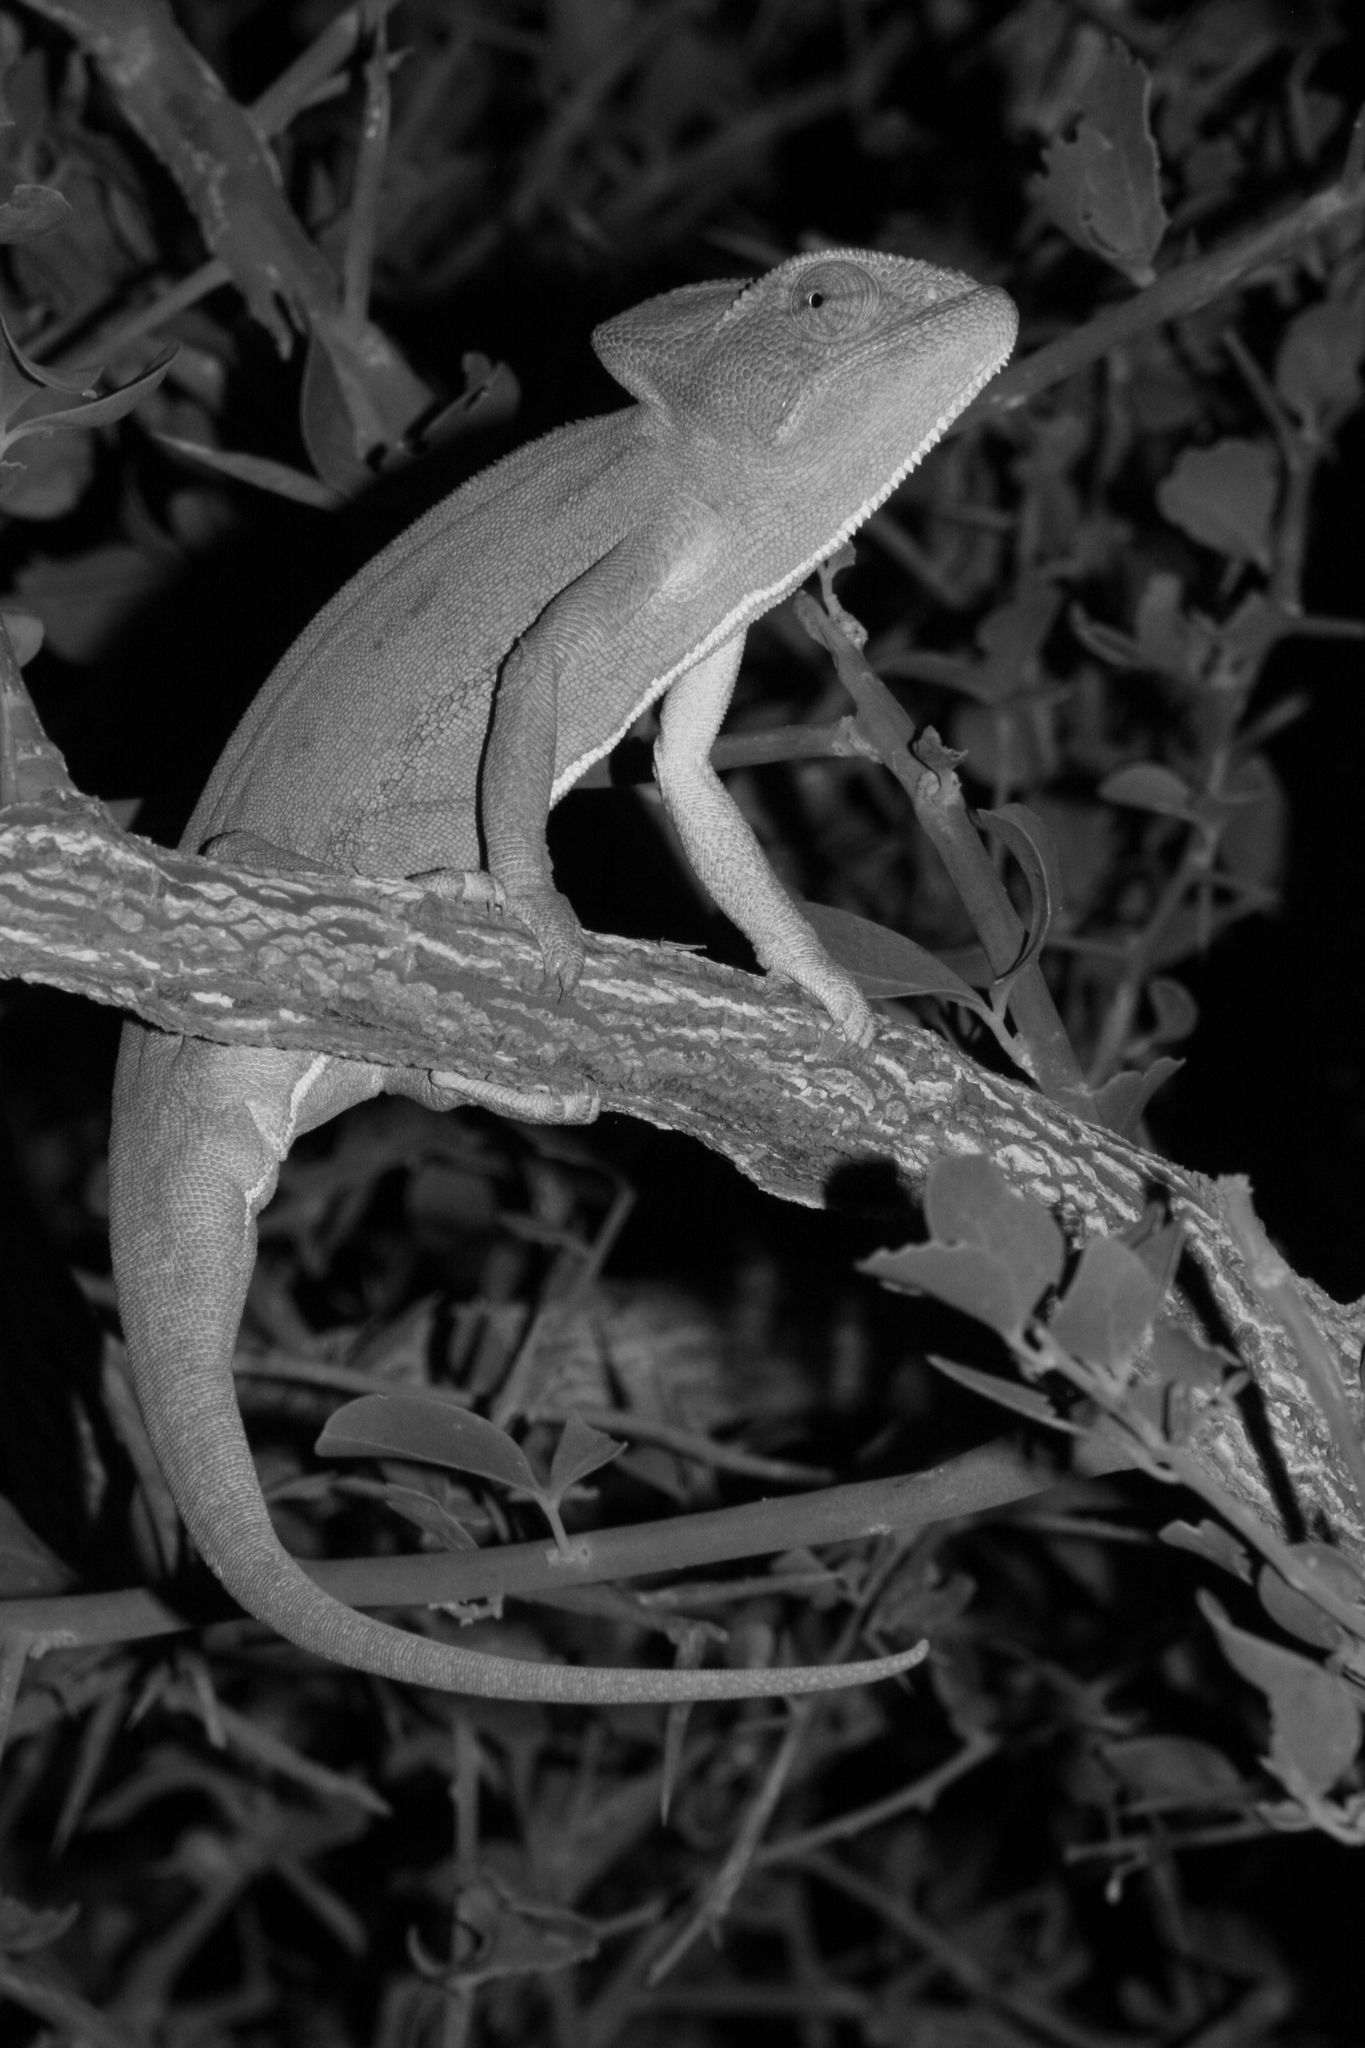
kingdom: Animalia
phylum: Chordata
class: Squamata
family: Chamaeleonidae
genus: Chamaeleo
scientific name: Chamaeleo africanus
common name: African chameleon
